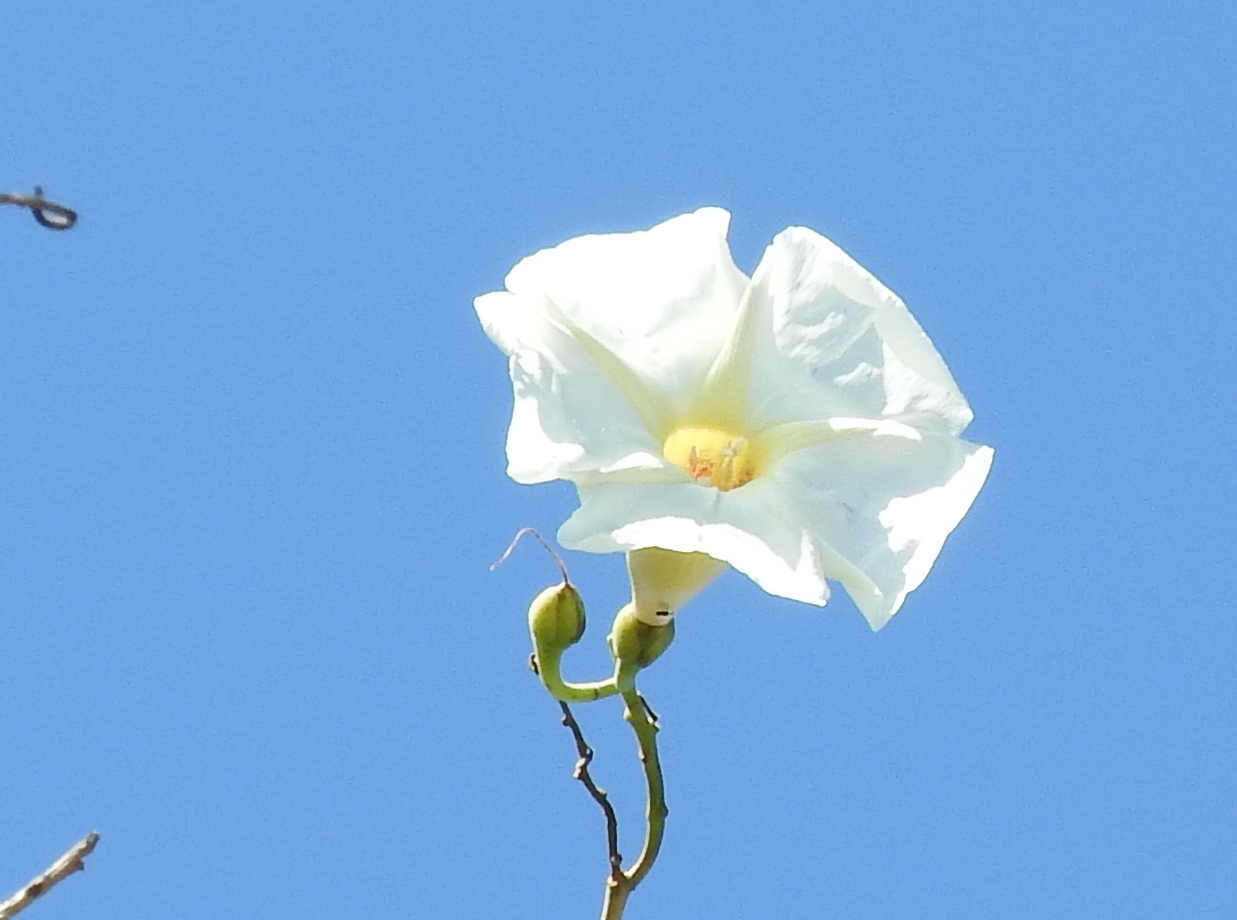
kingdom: Plantae
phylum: Tracheophyta
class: Magnoliopsida
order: Solanales
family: Convolvulaceae
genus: Ipomoea
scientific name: Ipomoea
